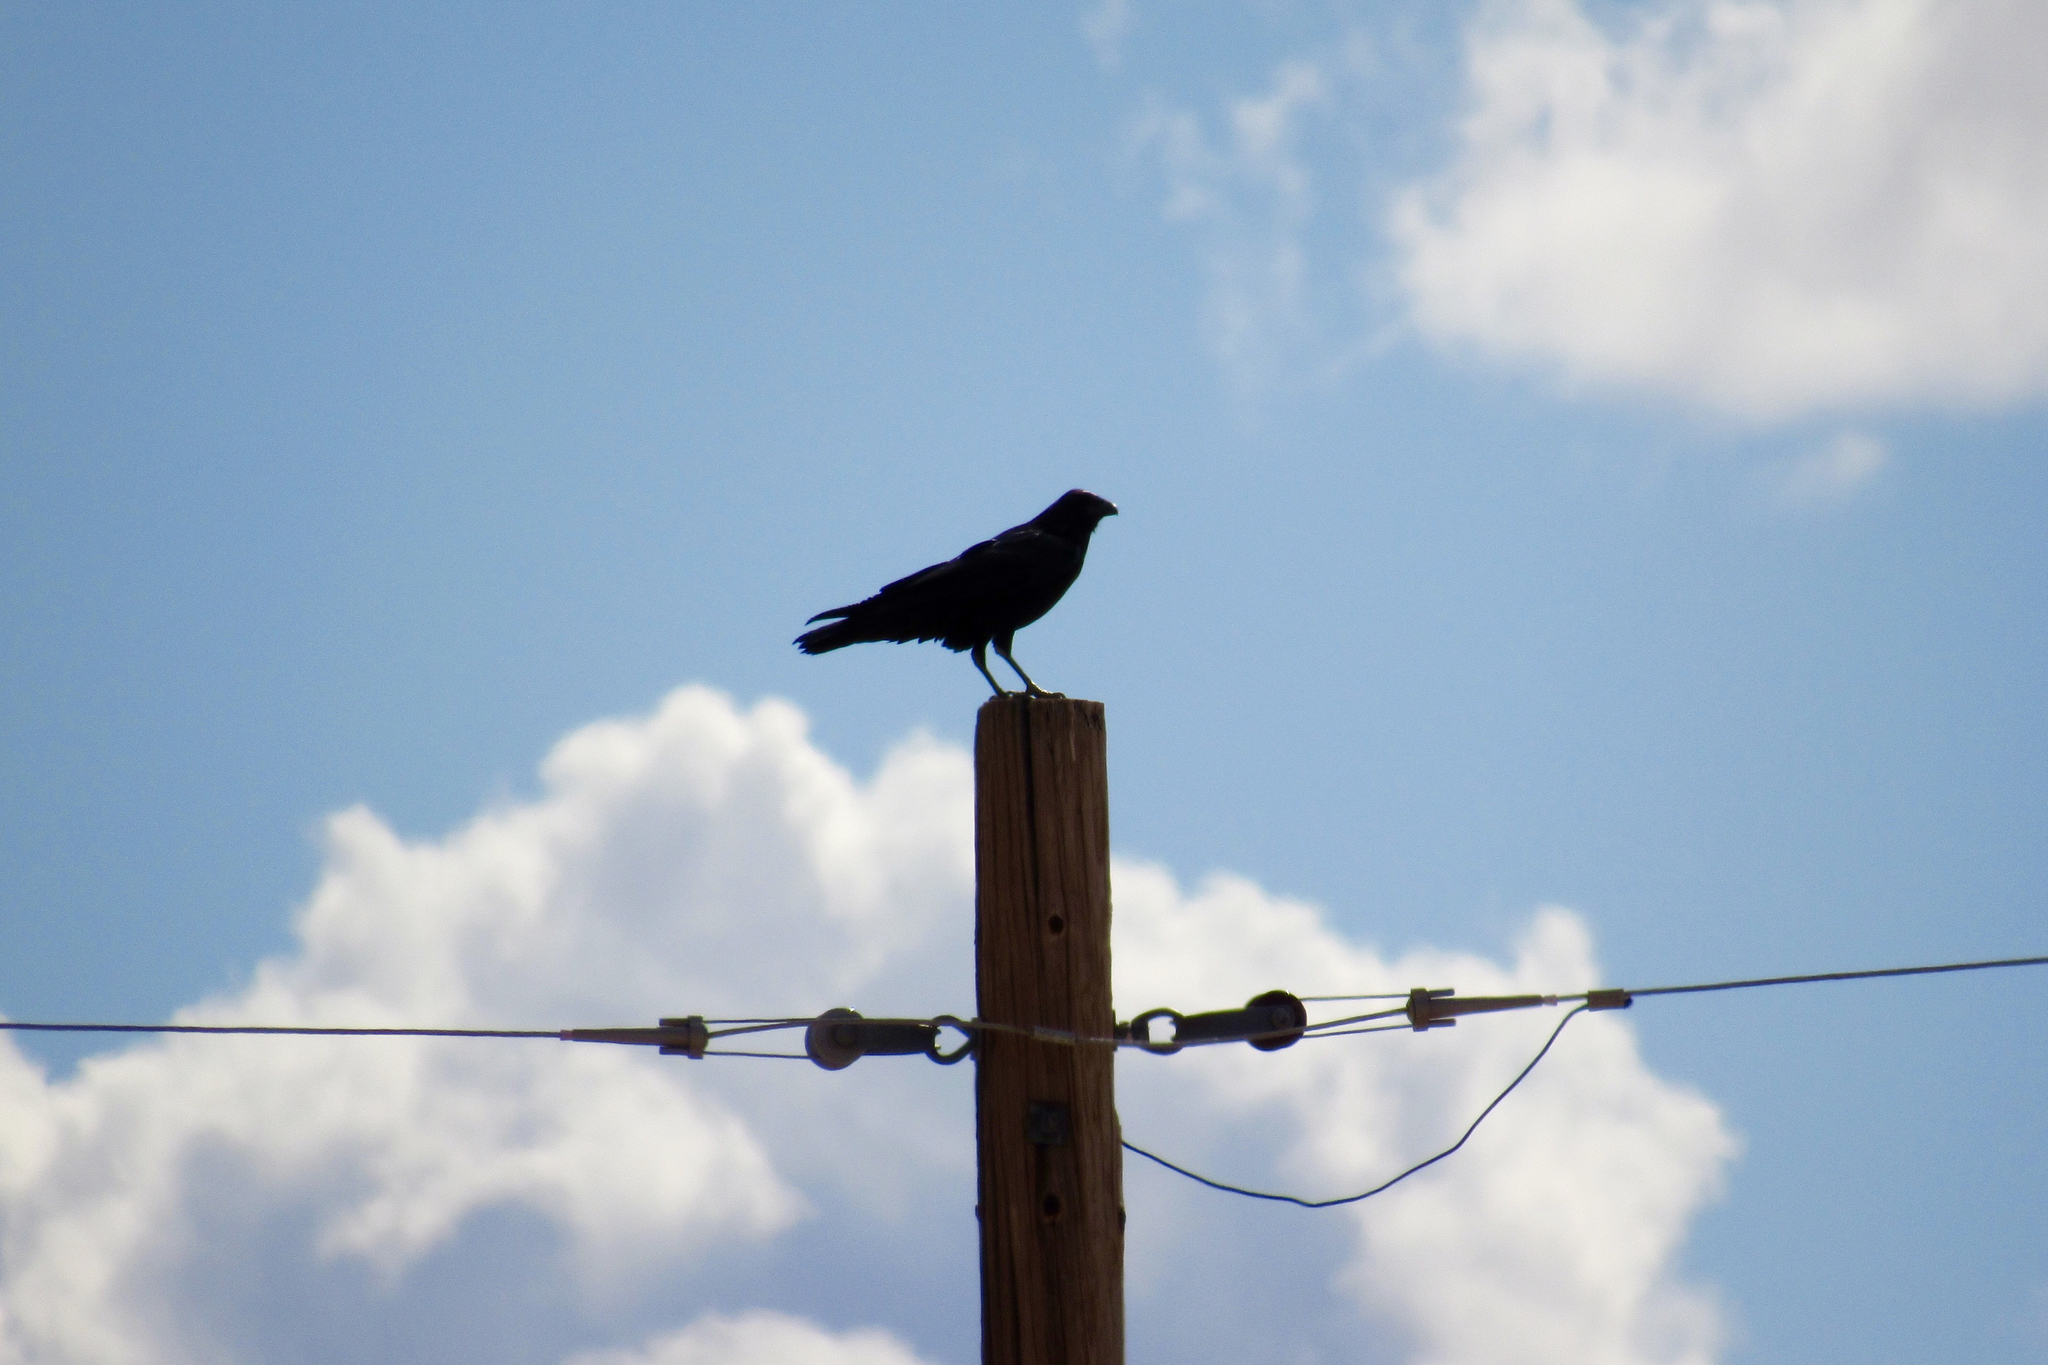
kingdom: Animalia
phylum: Chordata
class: Aves
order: Passeriformes
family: Corvidae
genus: Corvus
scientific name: Corvus corax
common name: Common raven
